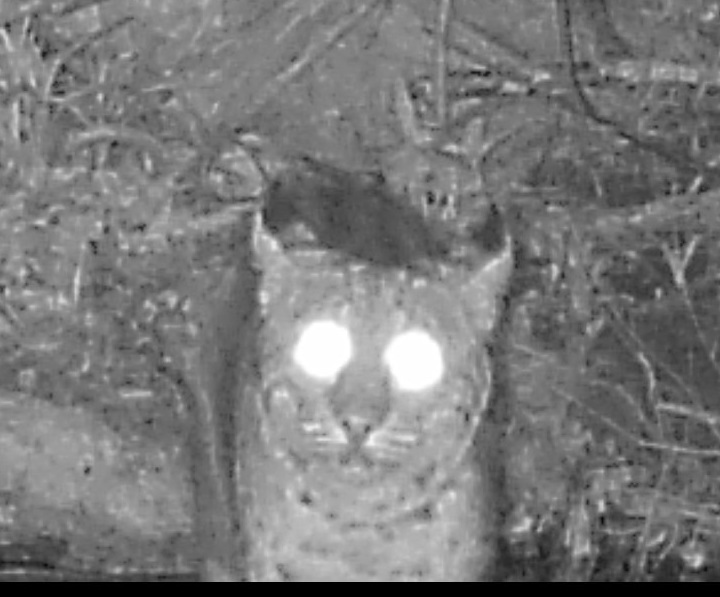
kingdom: Animalia
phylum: Chordata
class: Mammalia
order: Carnivora
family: Felidae
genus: Lynx
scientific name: Lynx rufus
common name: Bobcat
